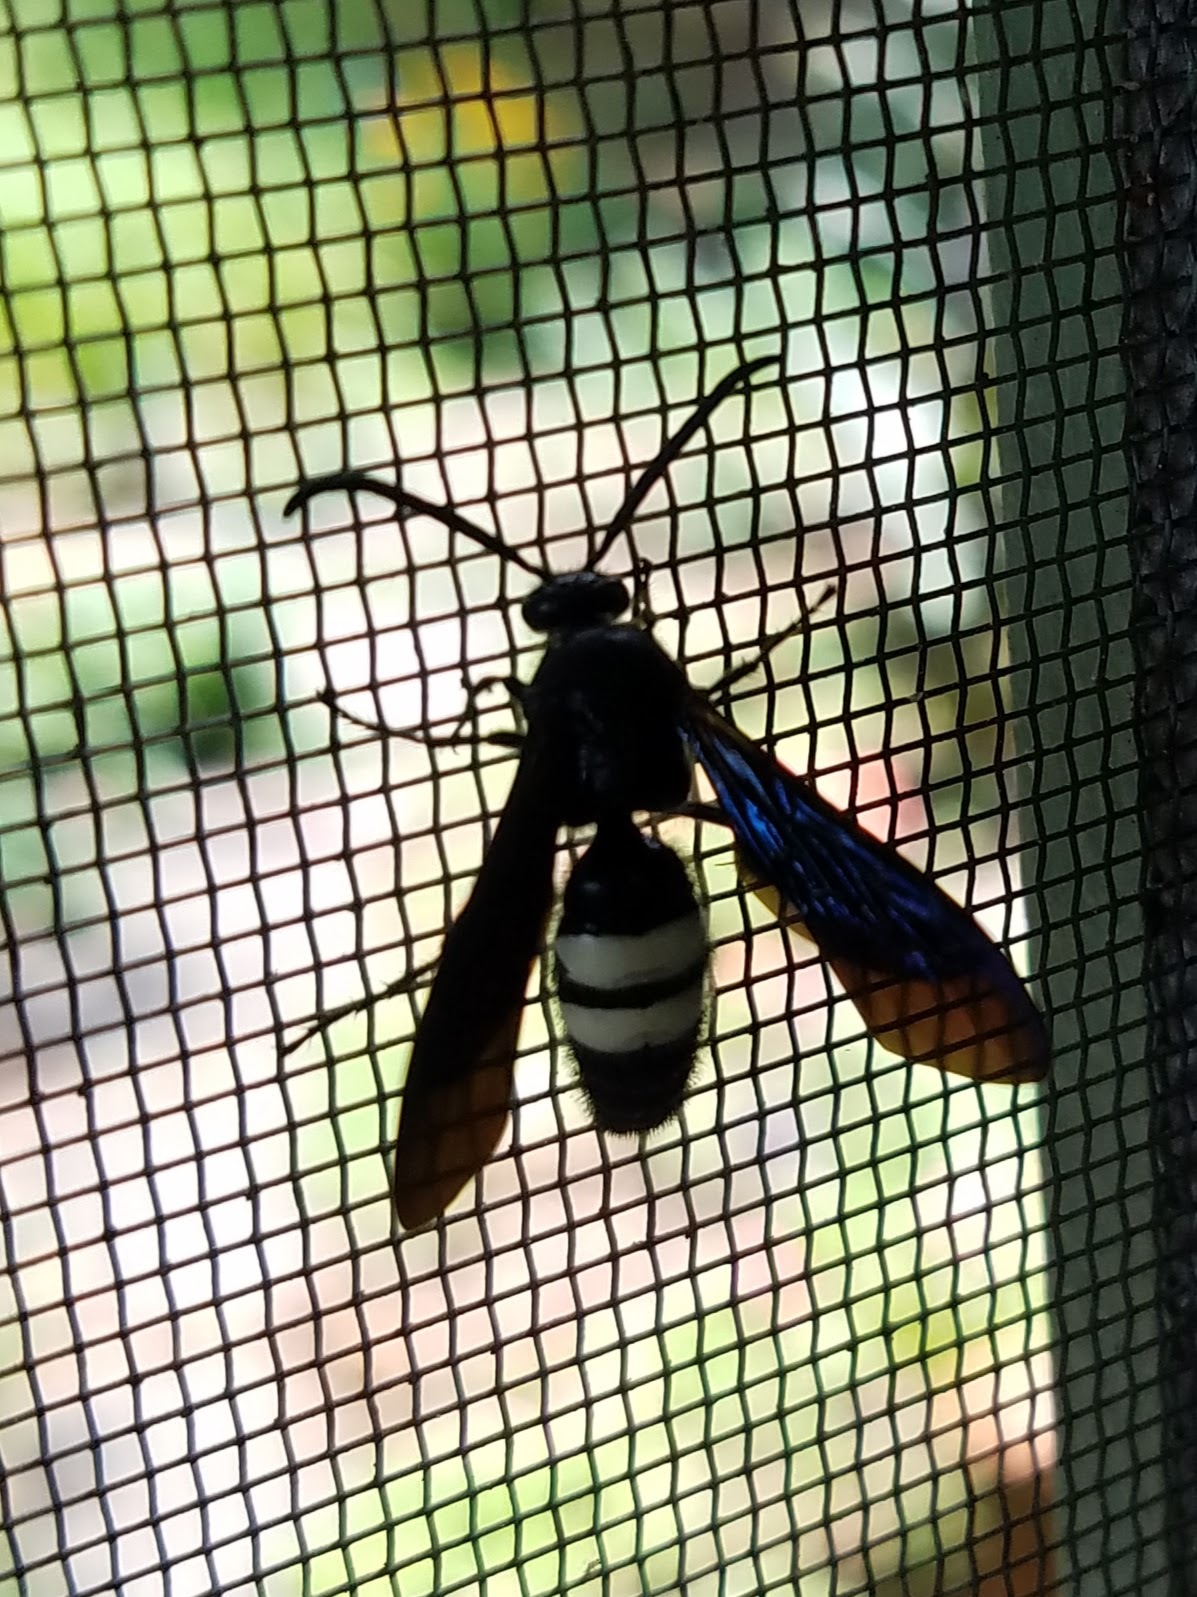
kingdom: Animalia
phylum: Arthropoda
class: Insecta
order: Hymenoptera
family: Scoliidae
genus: Scolia
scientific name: Scolia bicincta
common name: Double-banded scoliid wasp
